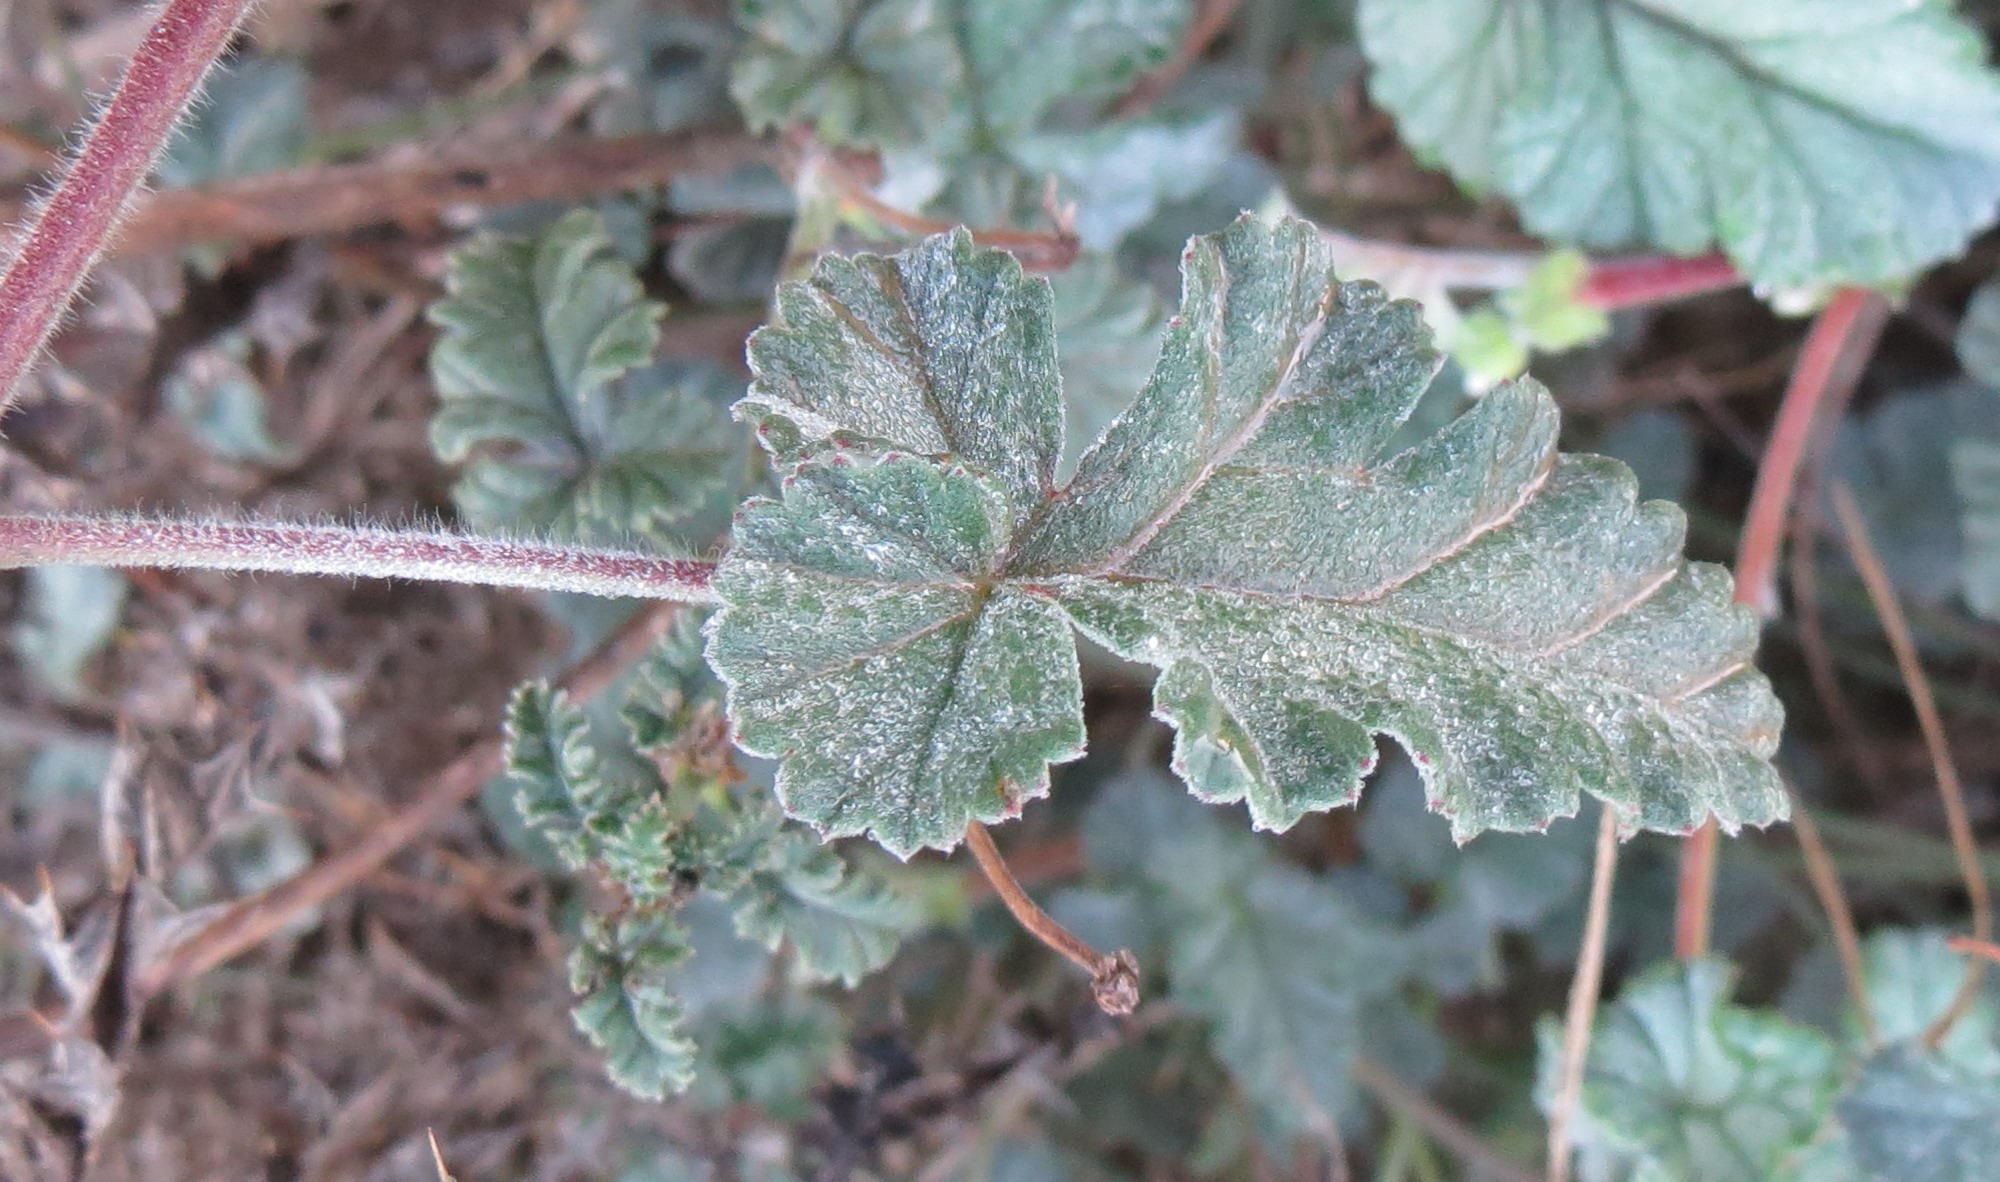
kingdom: Plantae
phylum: Tracheophyta
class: Magnoliopsida
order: Geraniales
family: Geraniaceae
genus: Pelargonium
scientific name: Pelargonium candicans
